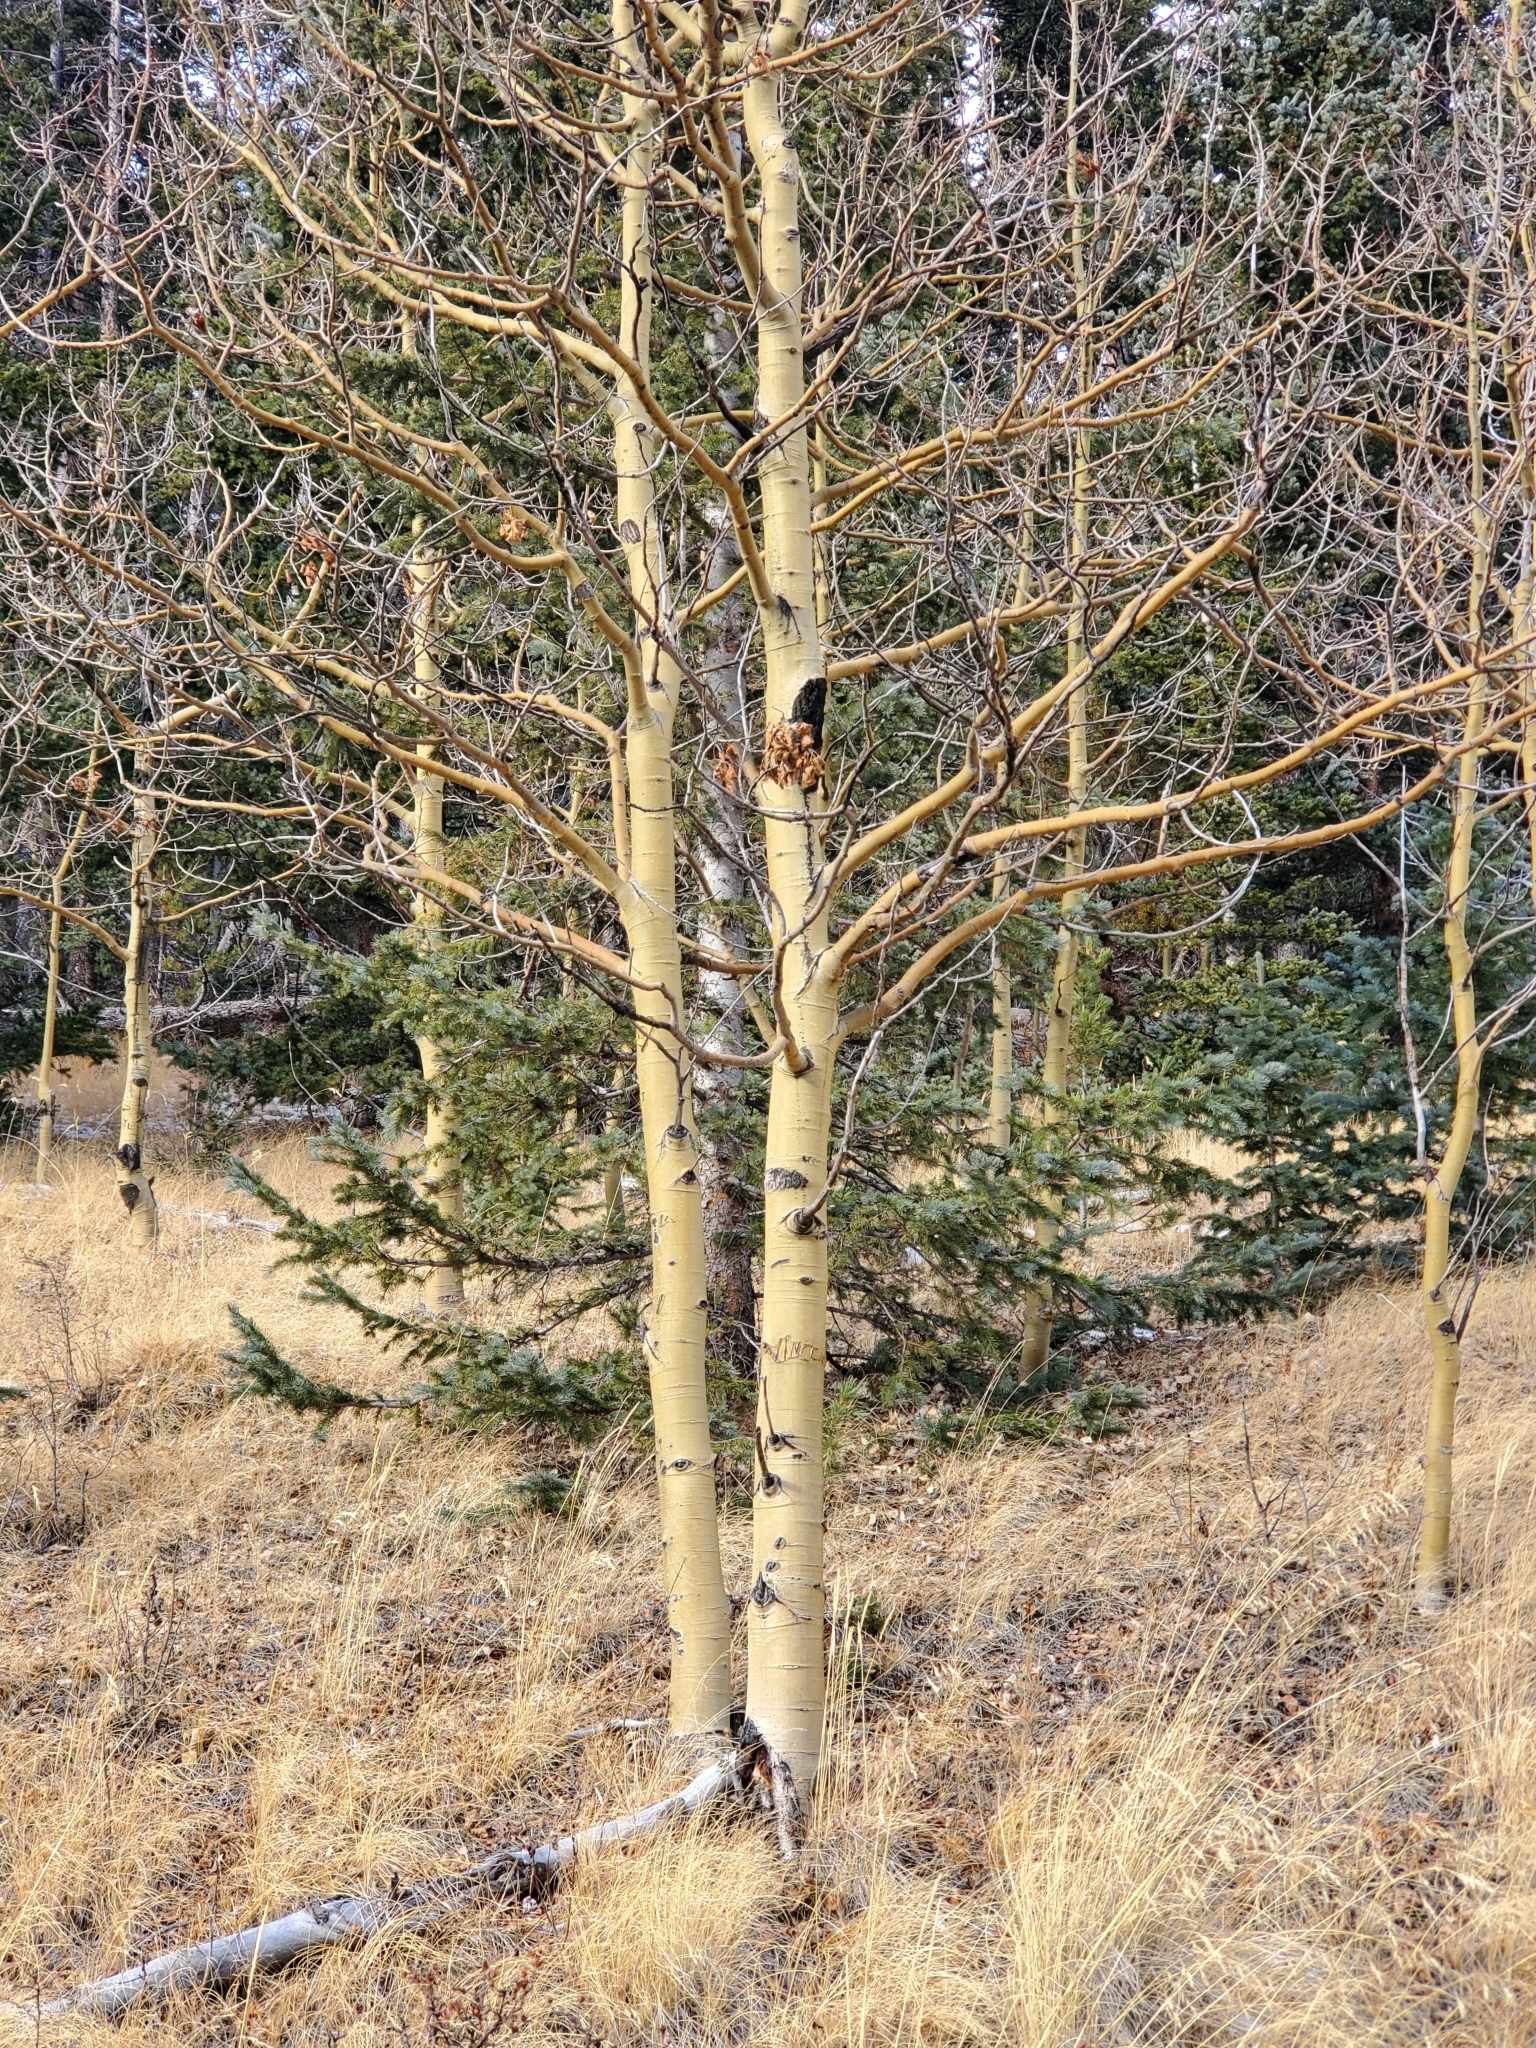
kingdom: Plantae
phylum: Tracheophyta
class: Magnoliopsida
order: Malpighiales
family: Salicaceae
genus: Populus
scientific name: Populus tremuloides
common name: Quaking aspen
